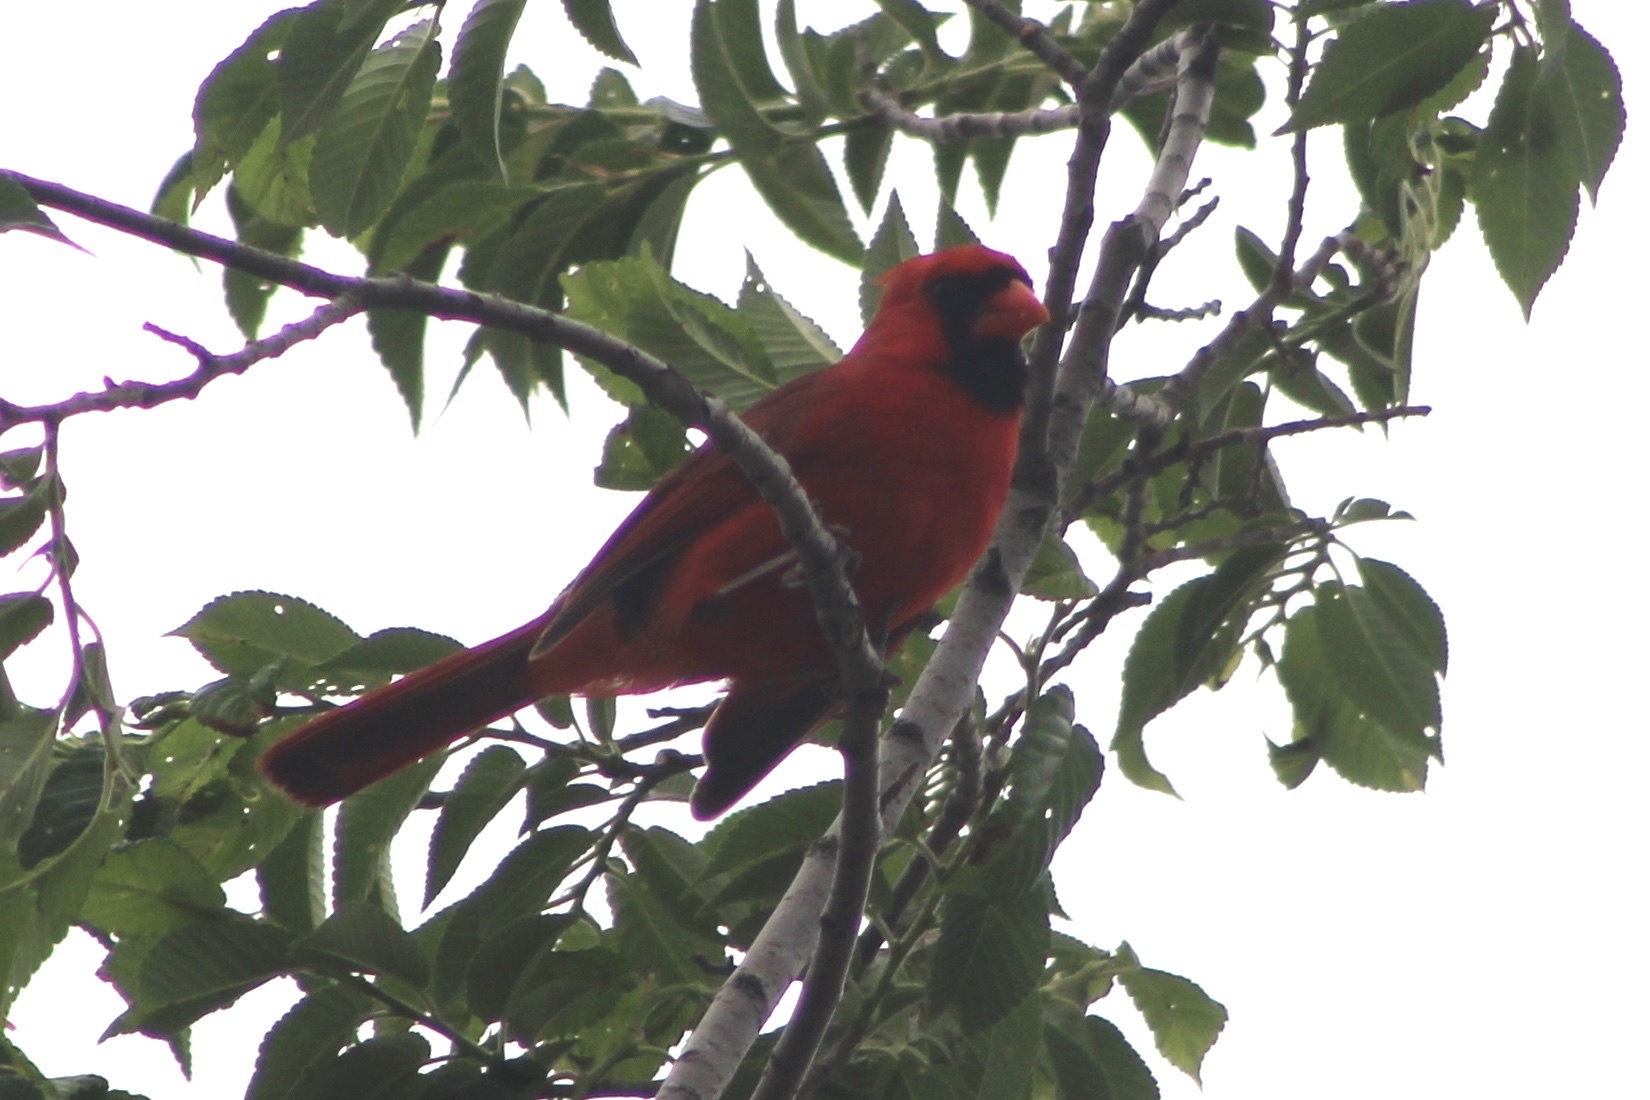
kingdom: Animalia
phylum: Chordata
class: Aves
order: Passeriformes
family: Cardinalidae
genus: Cardinalis
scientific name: Cardinalis cardinalis
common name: Northern cardinal
